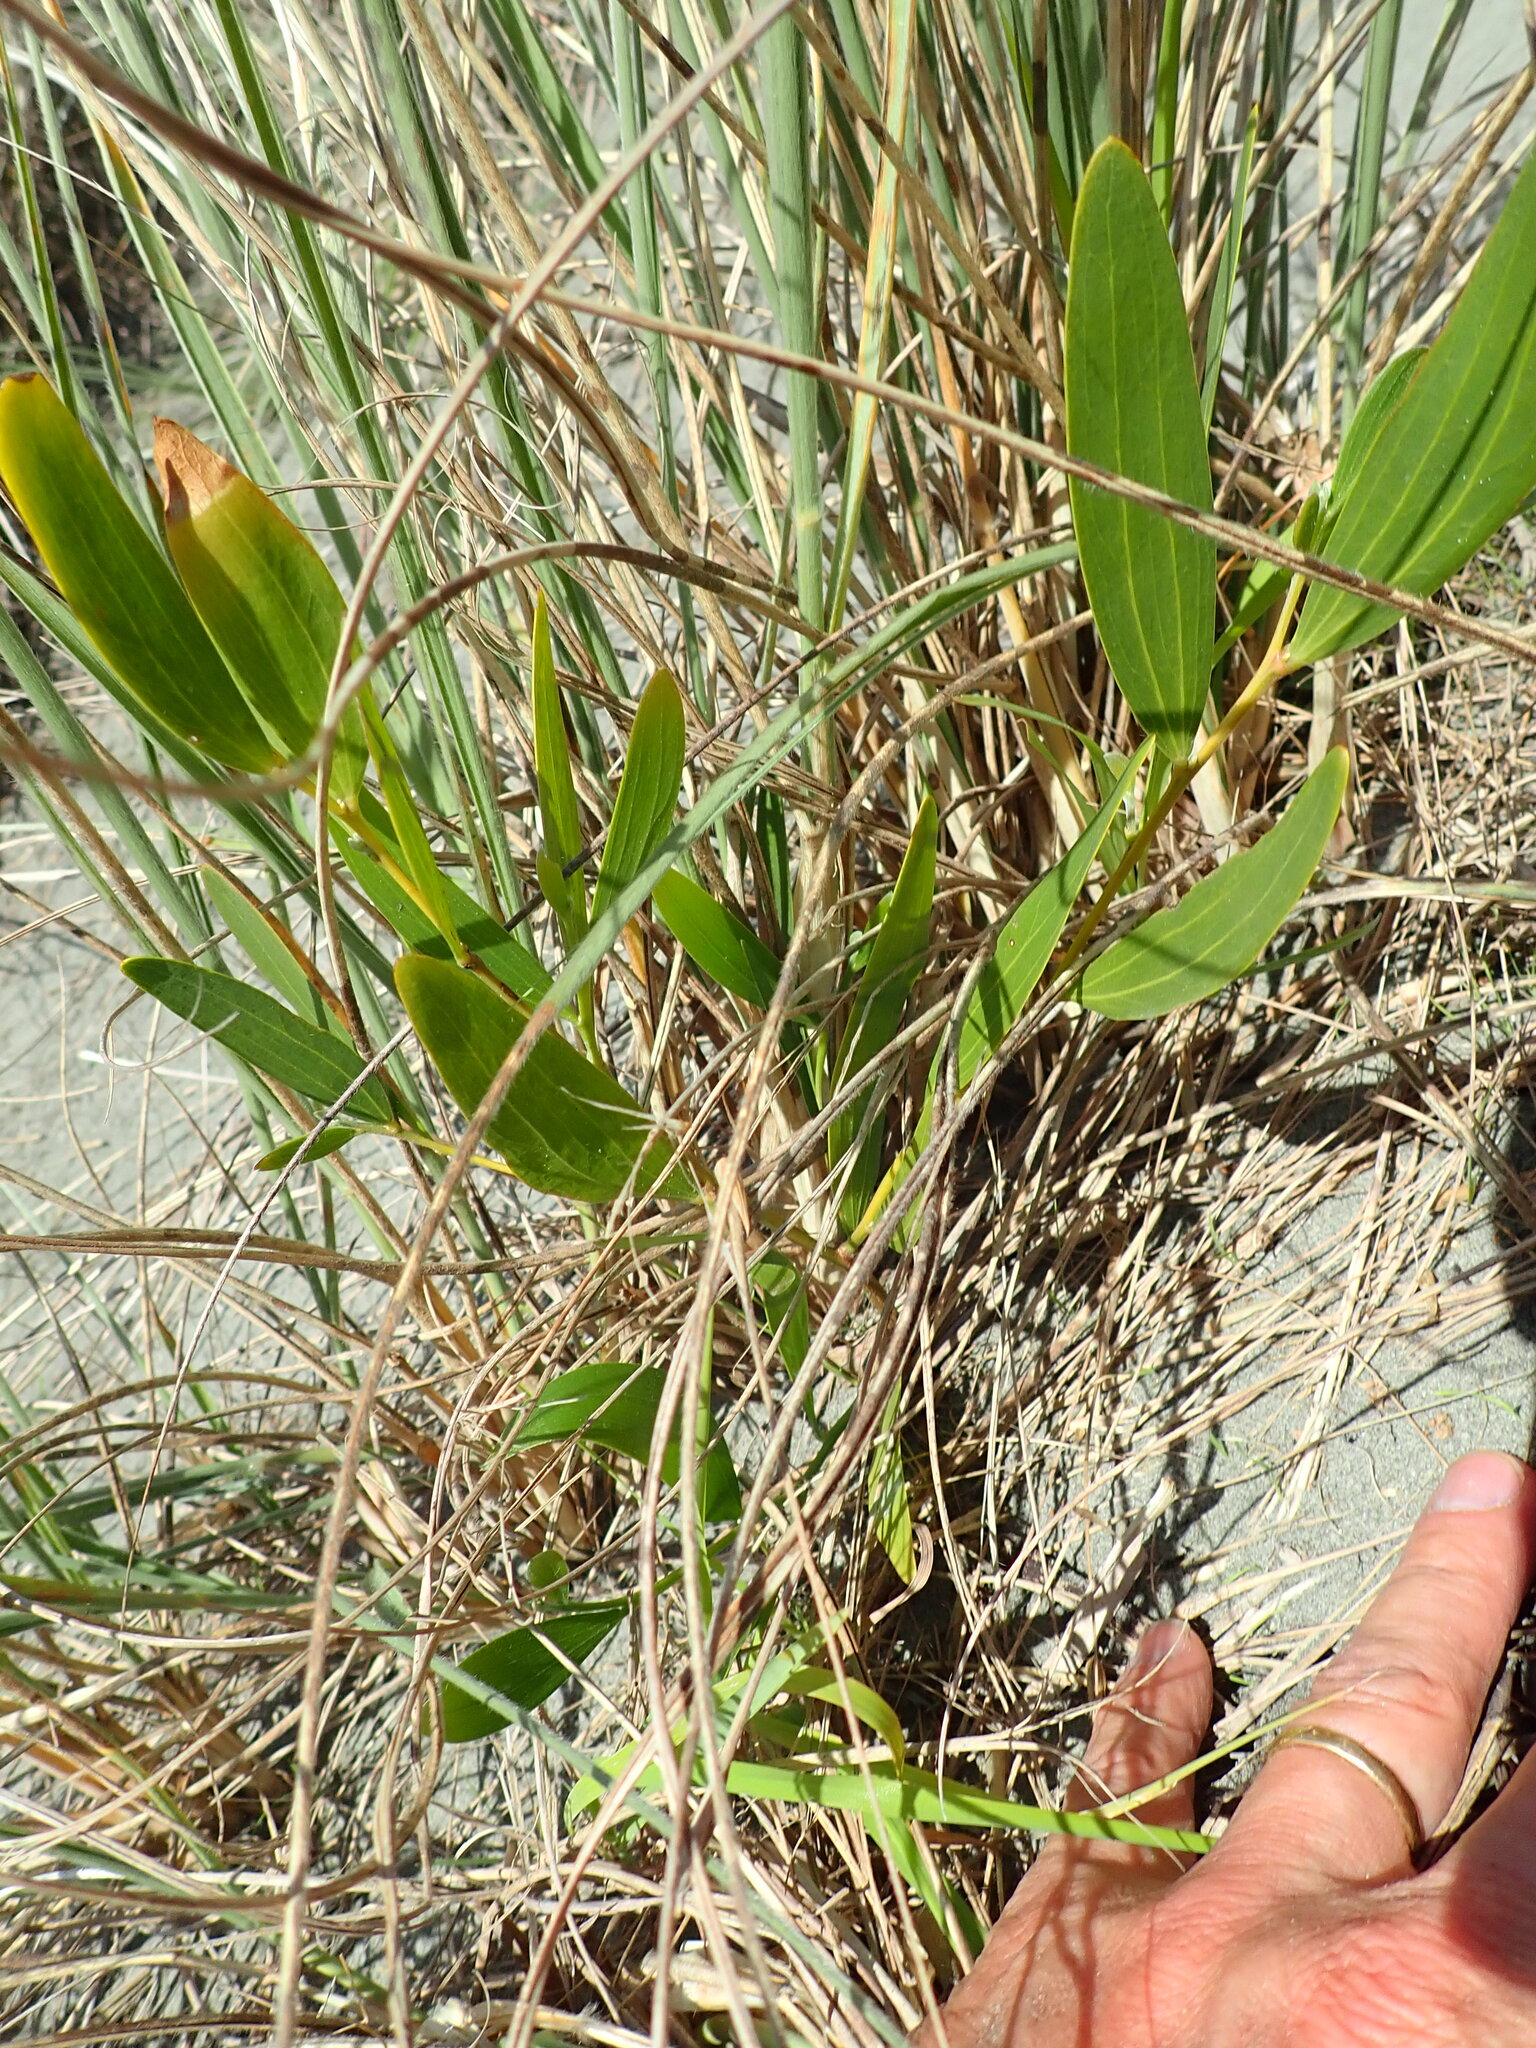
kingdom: Plantae
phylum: Tracheophyta
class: Magnoliopsida
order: Fabales
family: Fabaceae
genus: Acacia
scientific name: Acacia longifolia
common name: Sydney golden wattle
